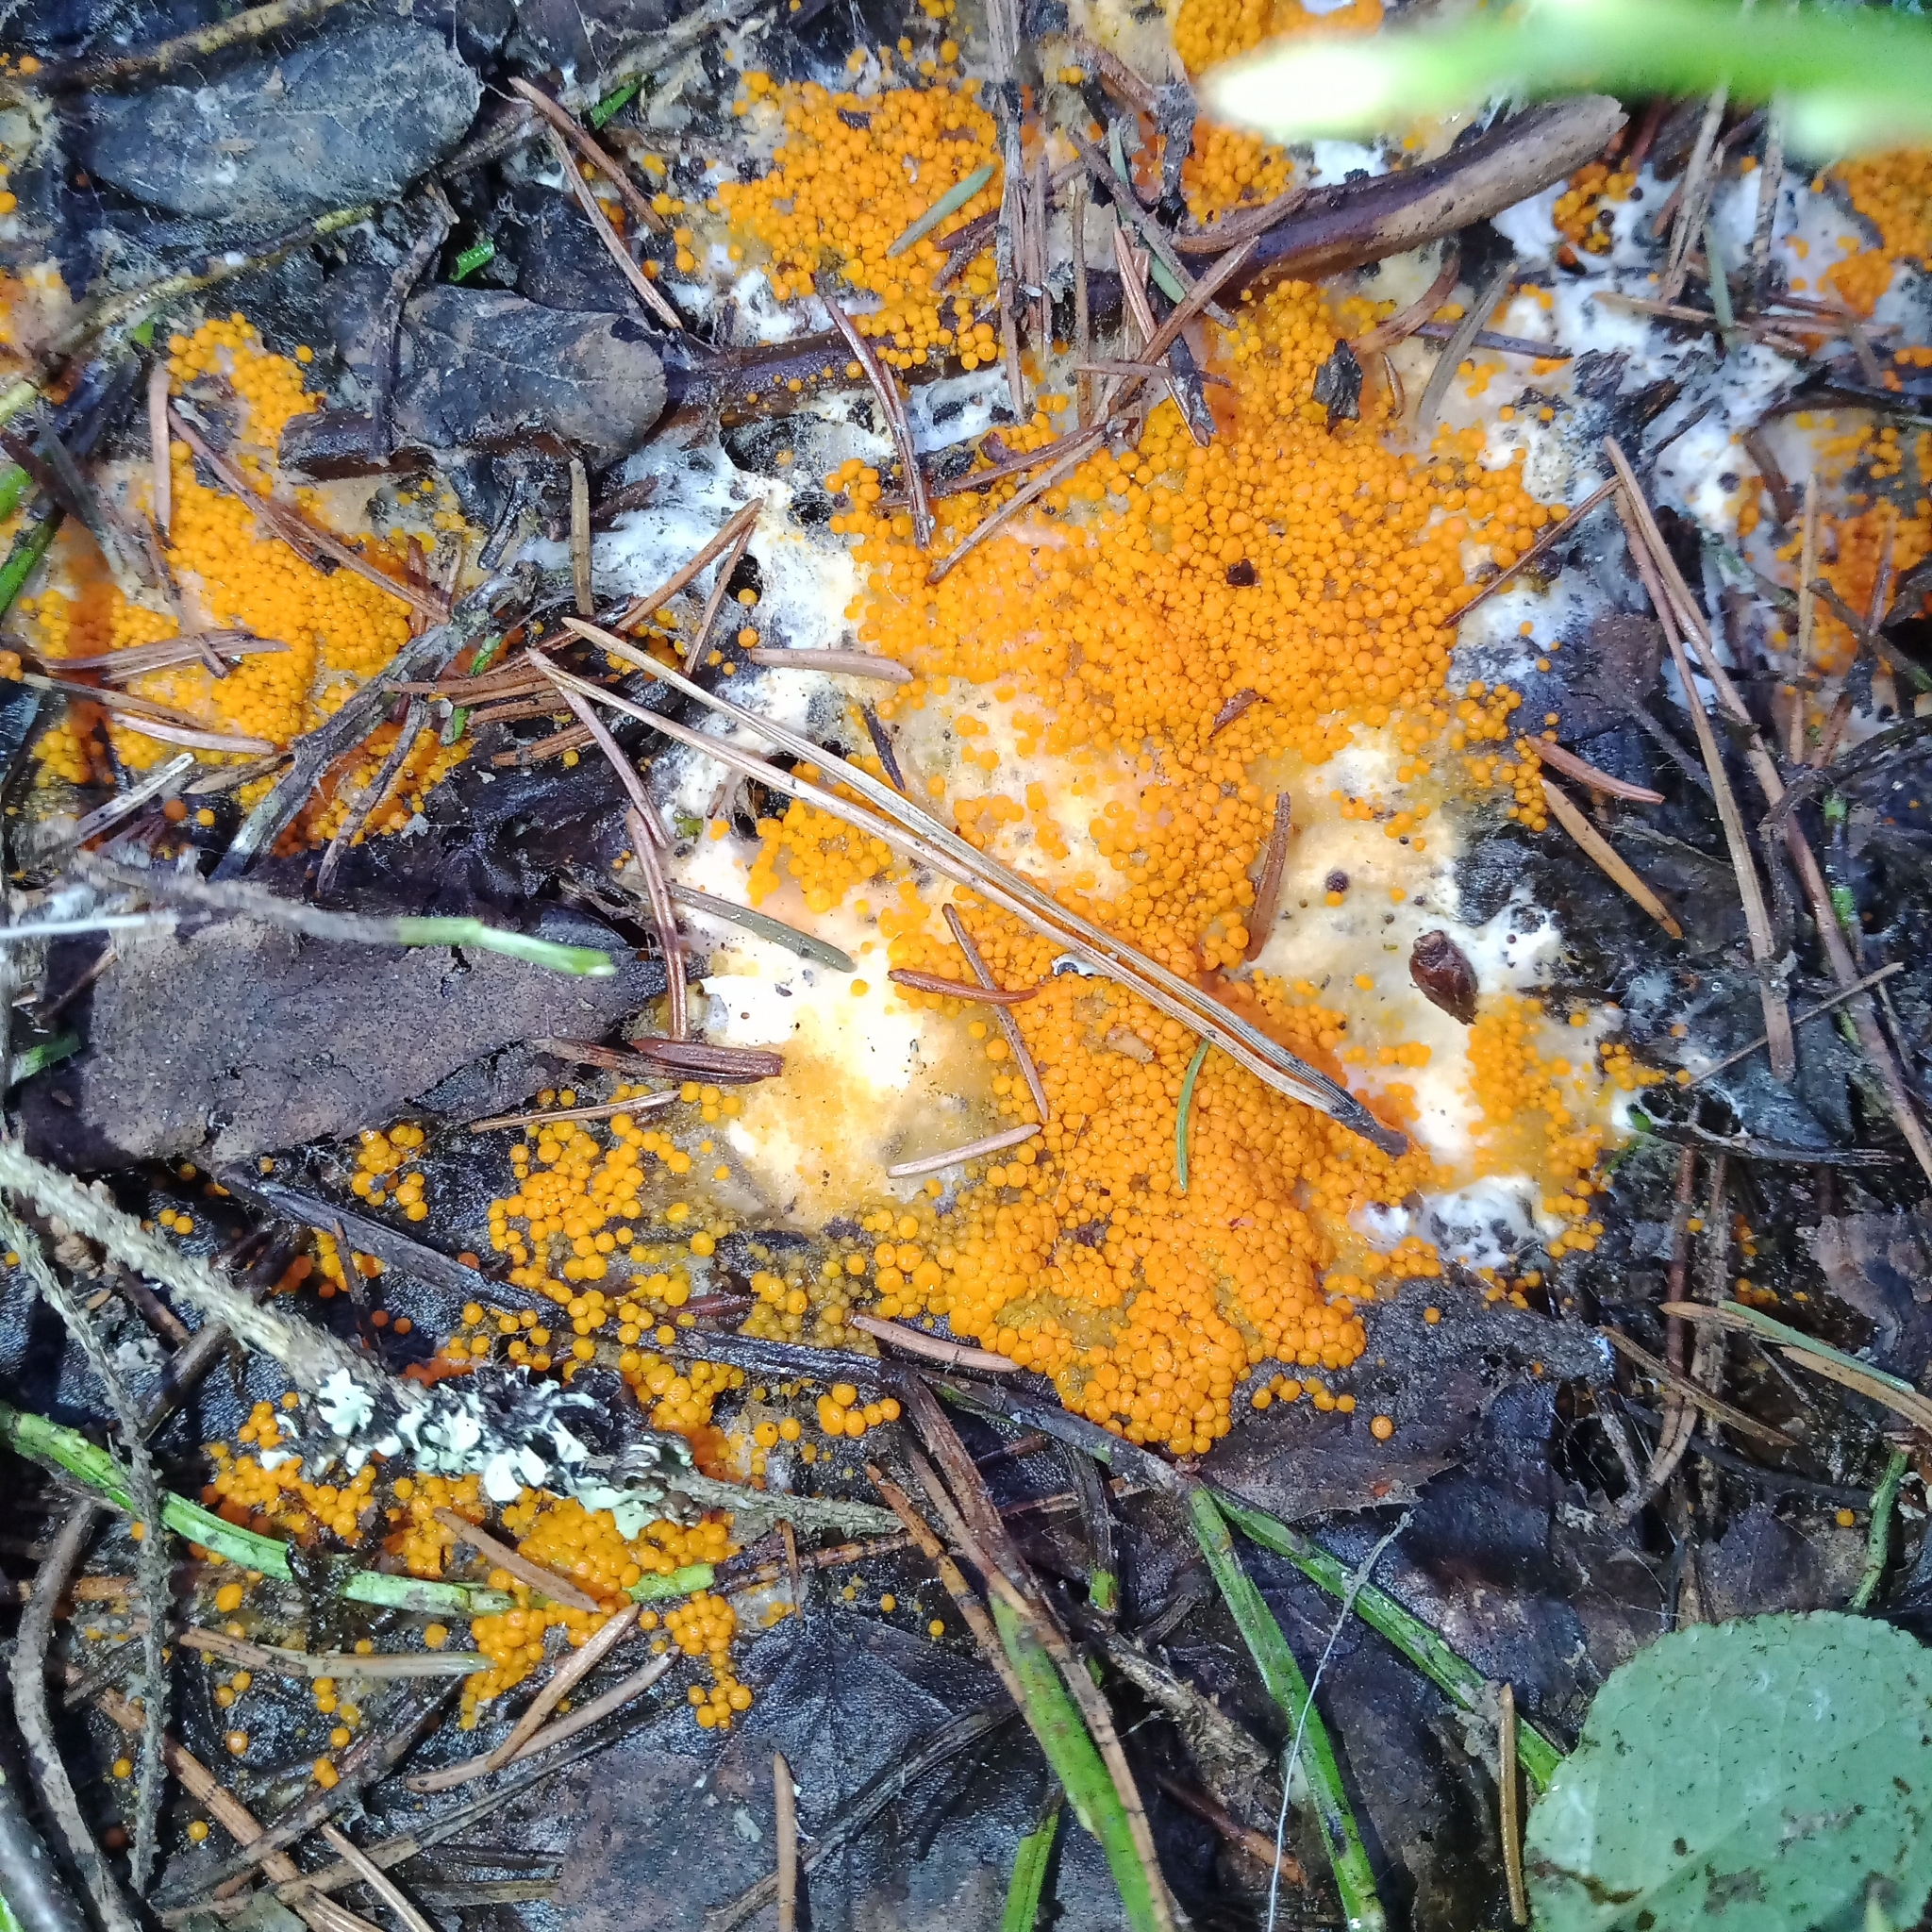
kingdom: Fungi
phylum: Ascomycota
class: Pezizomycetes
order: Pezizales
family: Pyronemataceae
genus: Byssonectria
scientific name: Byssonectria terrestris
